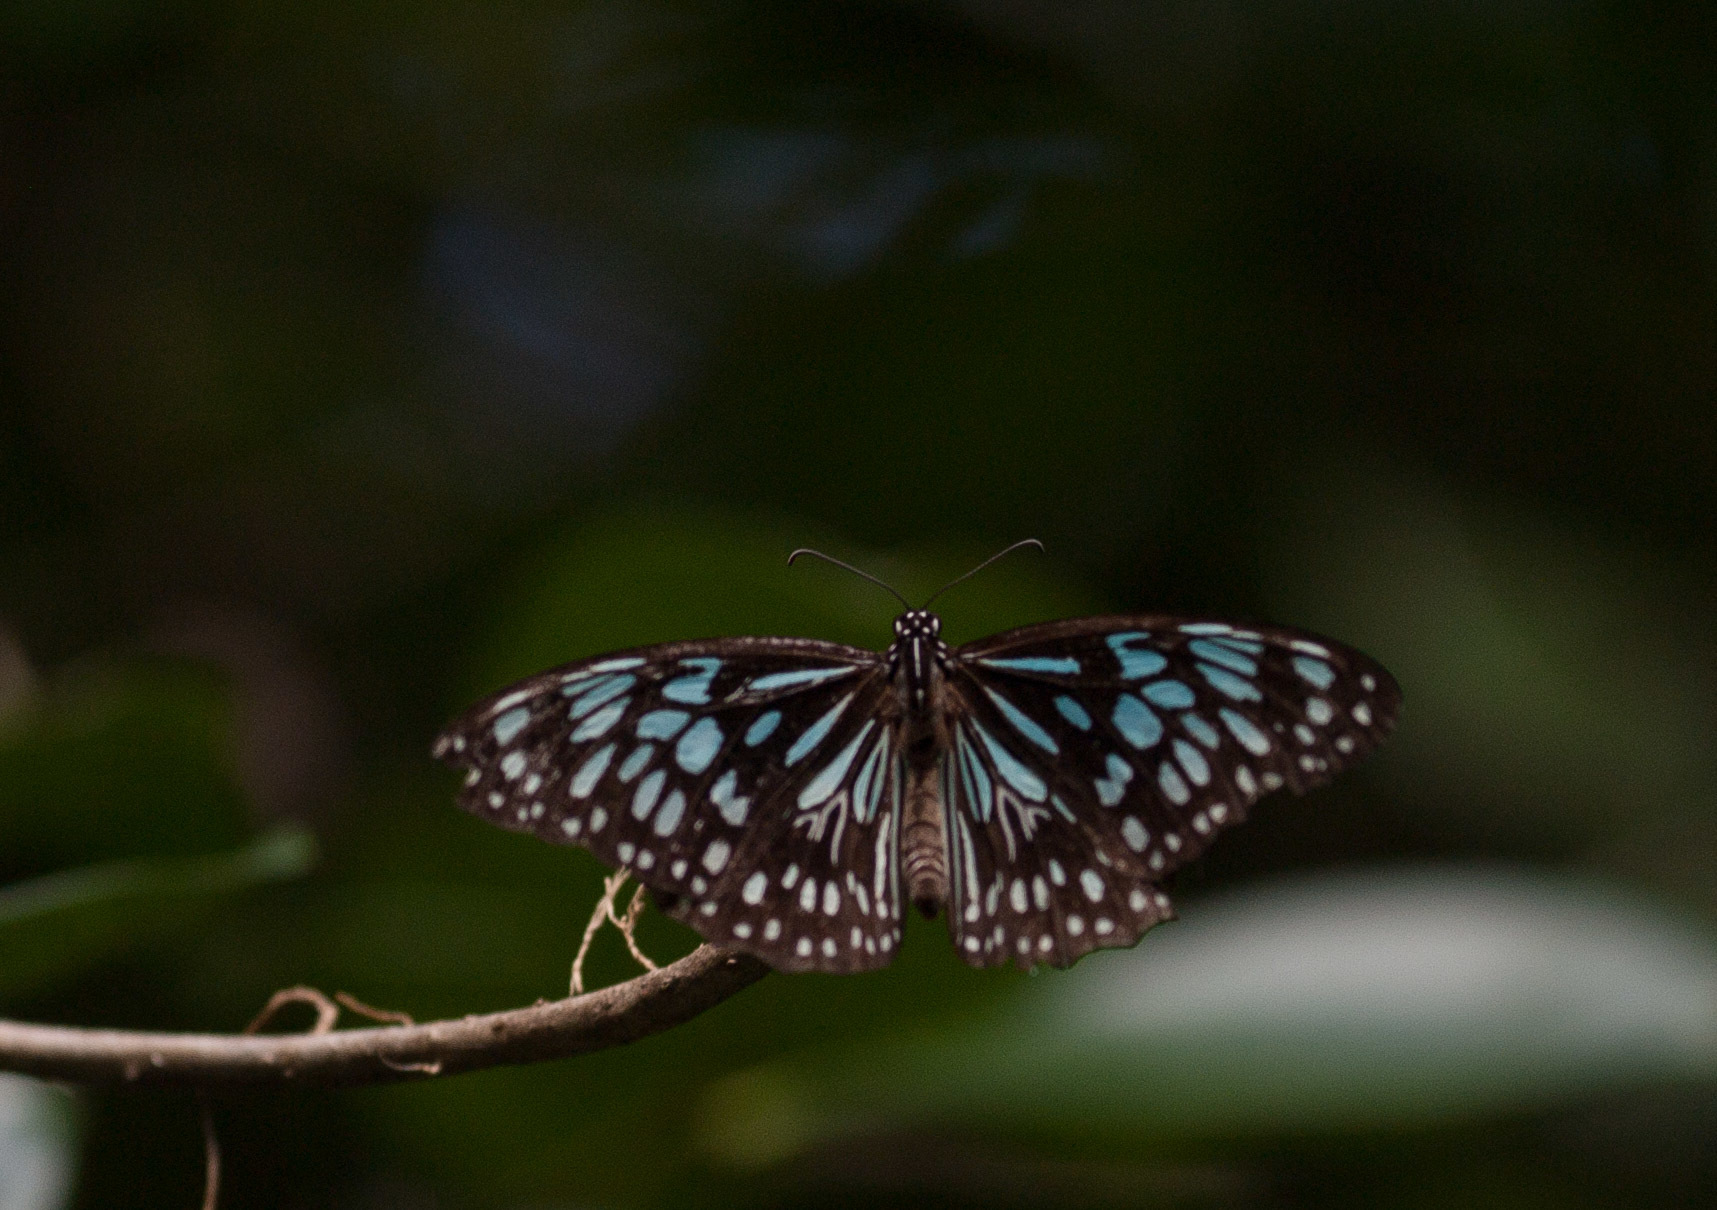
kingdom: Animalia
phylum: Arthropoda
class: Insecta
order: Lepidoptera
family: Nymphalidae
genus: Tirumala
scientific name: Tirumala hamata
